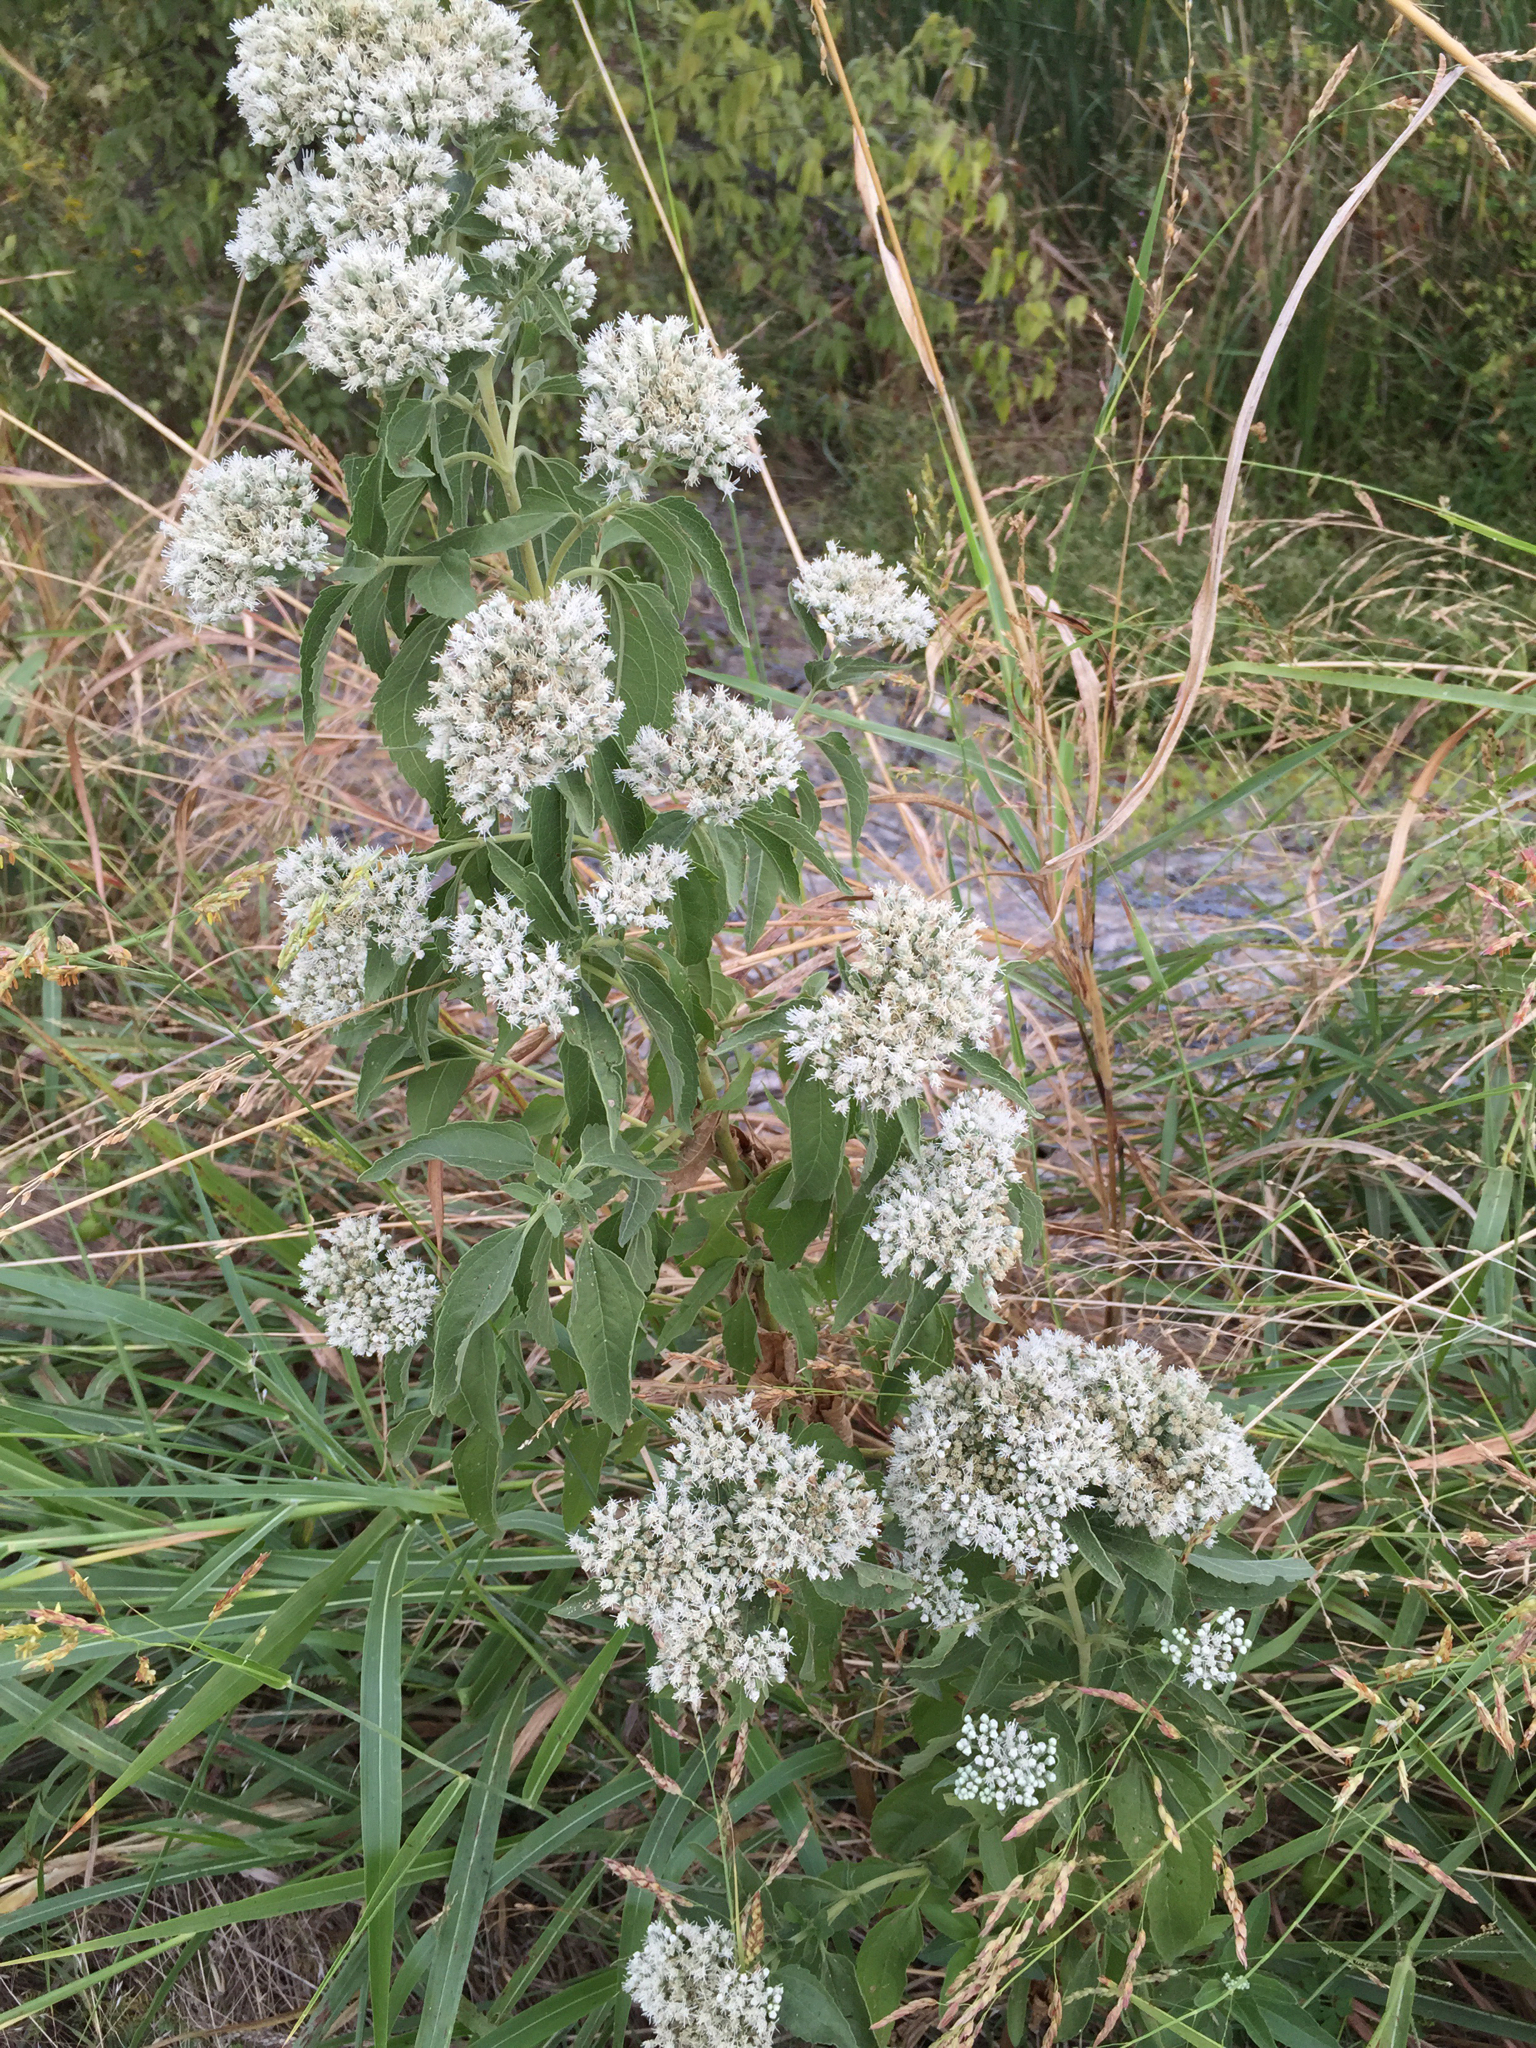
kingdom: Plantae
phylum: Tracheophyta
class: Magnoliopsida
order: Asterales
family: Asteraceae
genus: Eupatorium
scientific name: Eupatorium serotinum
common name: Late boneset
